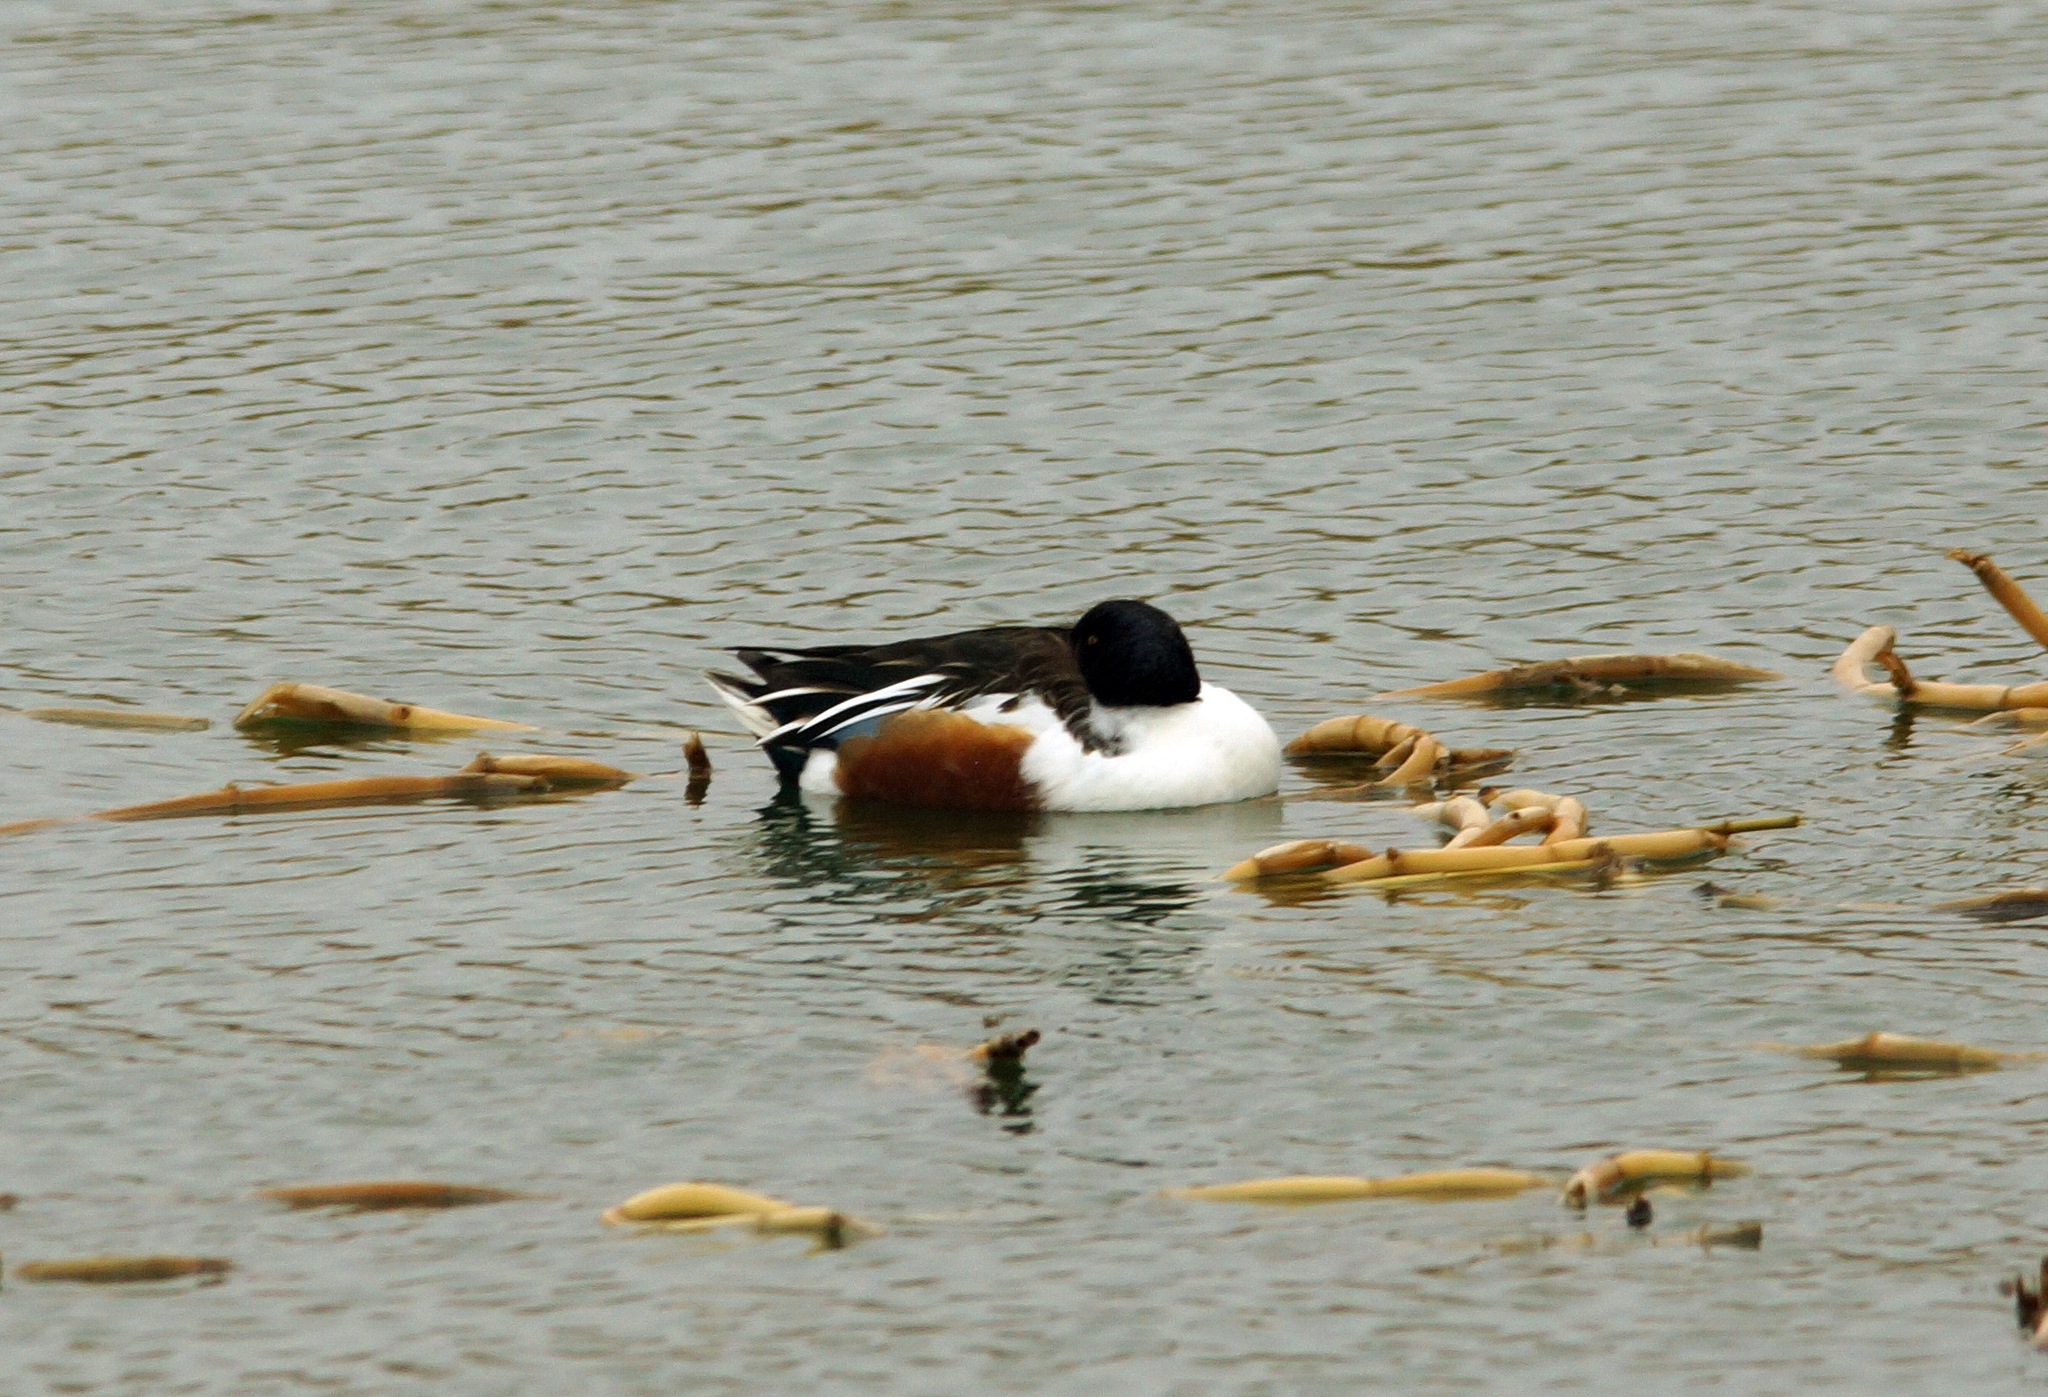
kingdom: Animalia
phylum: Chordata
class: Aves
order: Anseriformes
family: Anatidae
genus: Spatula
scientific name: Spatula clypeata
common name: Northern shoveler
